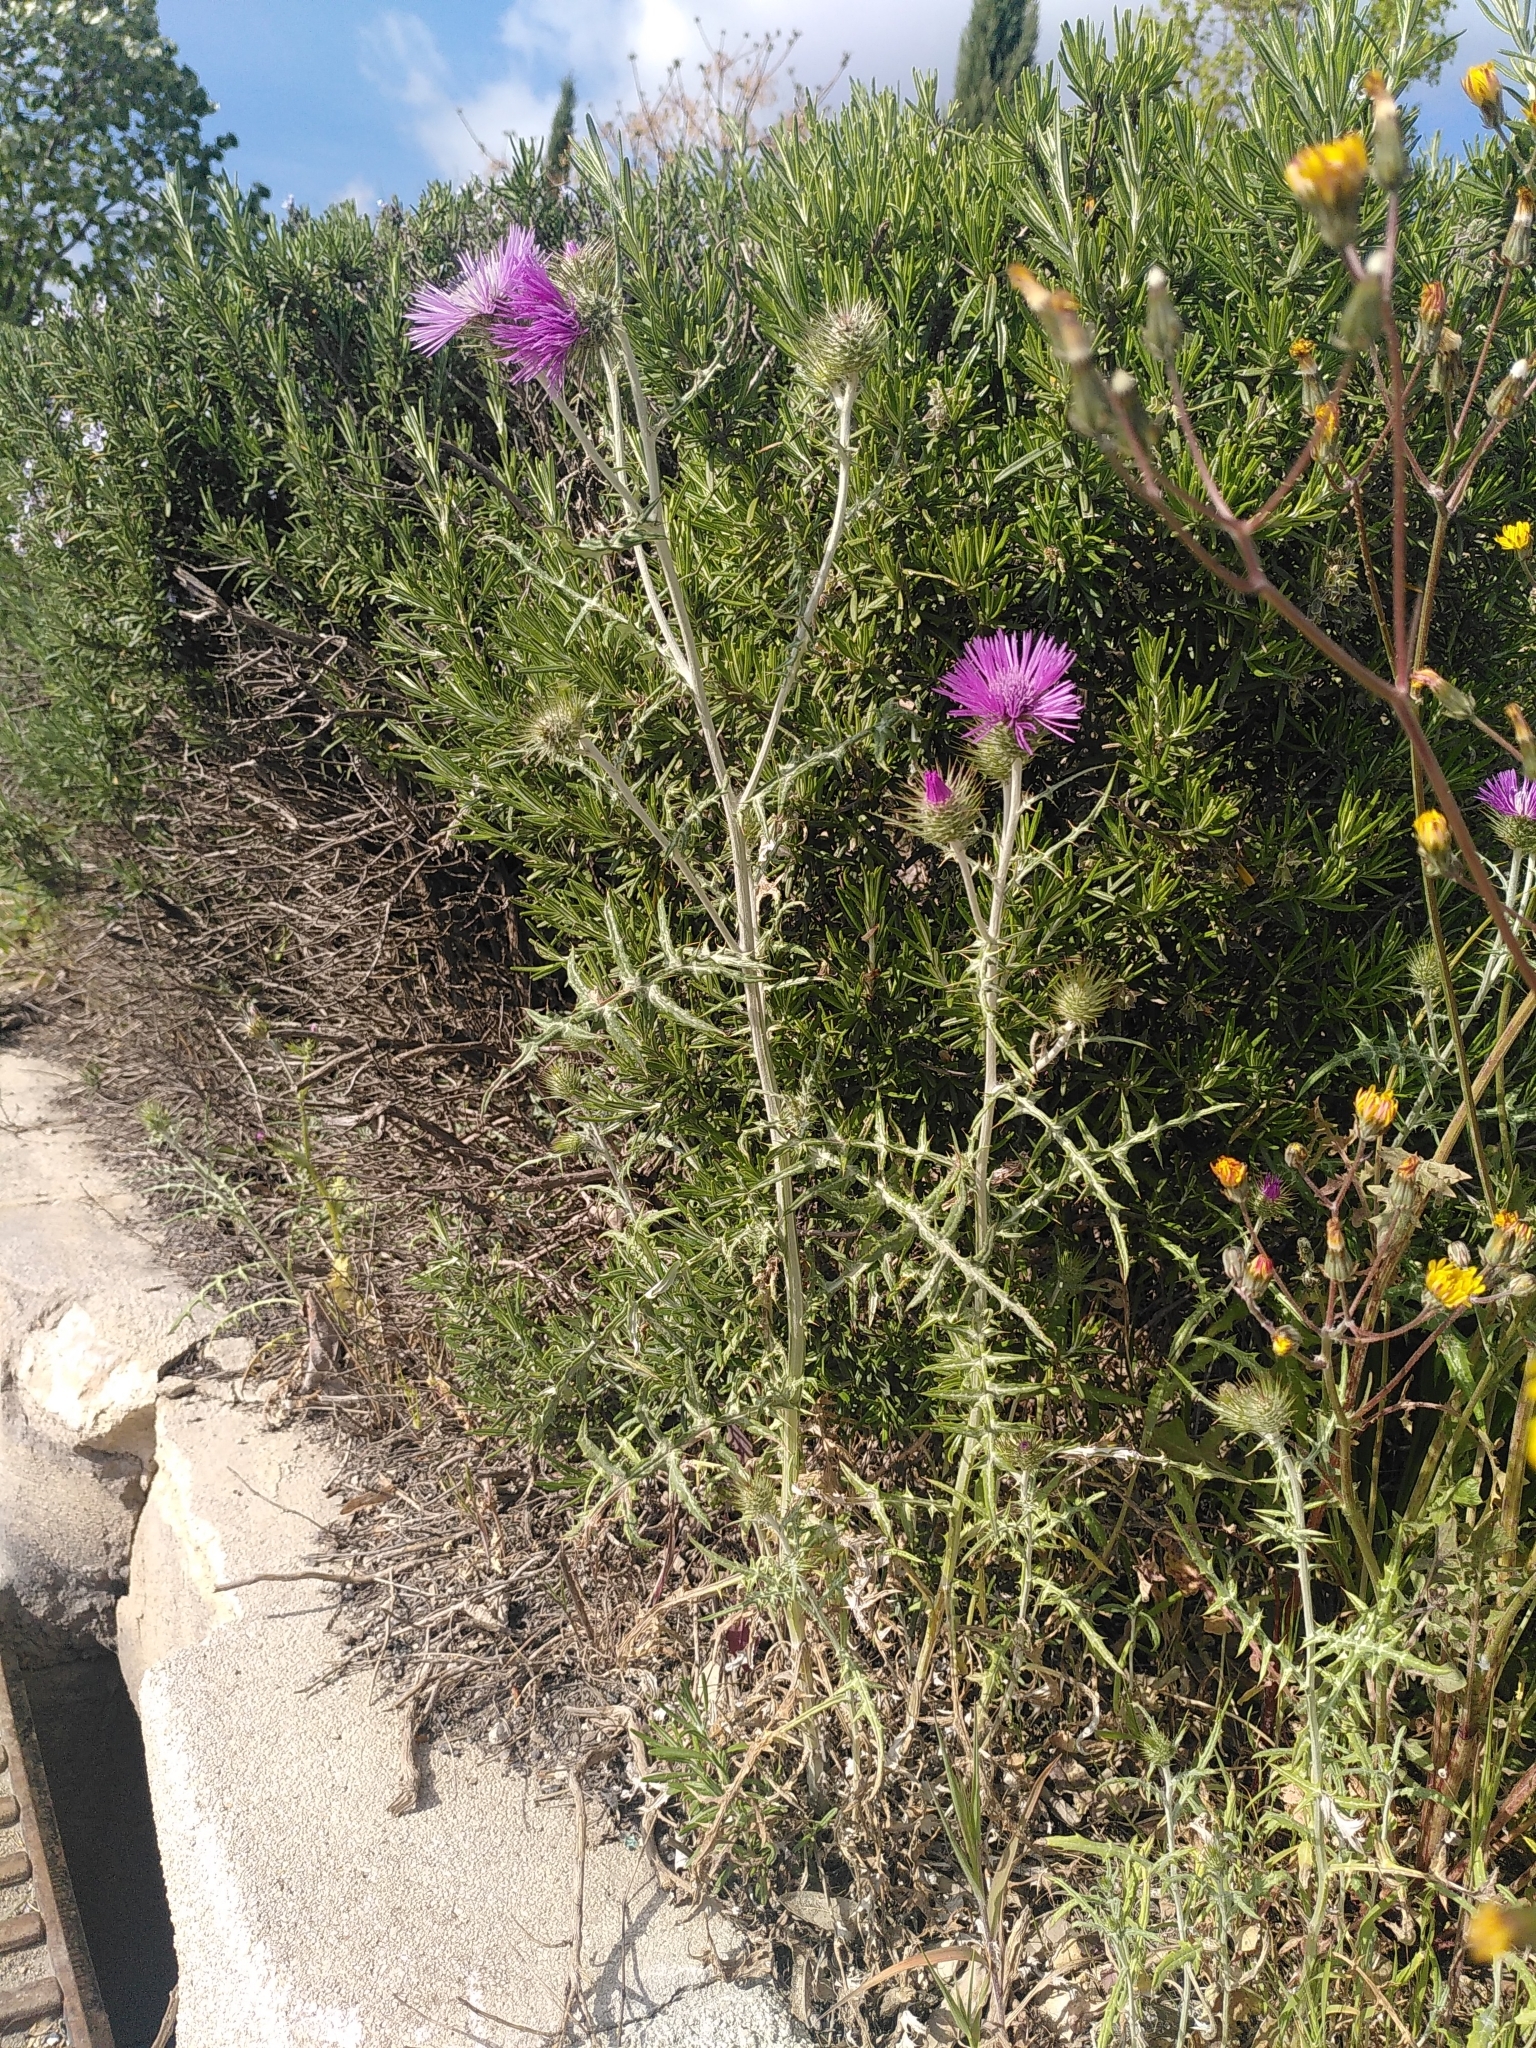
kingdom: Plantae
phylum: Tracheophyta
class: Magnoliopsida
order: Asterales
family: Asteraceae
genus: Galactites
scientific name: Galactites tomentosa
